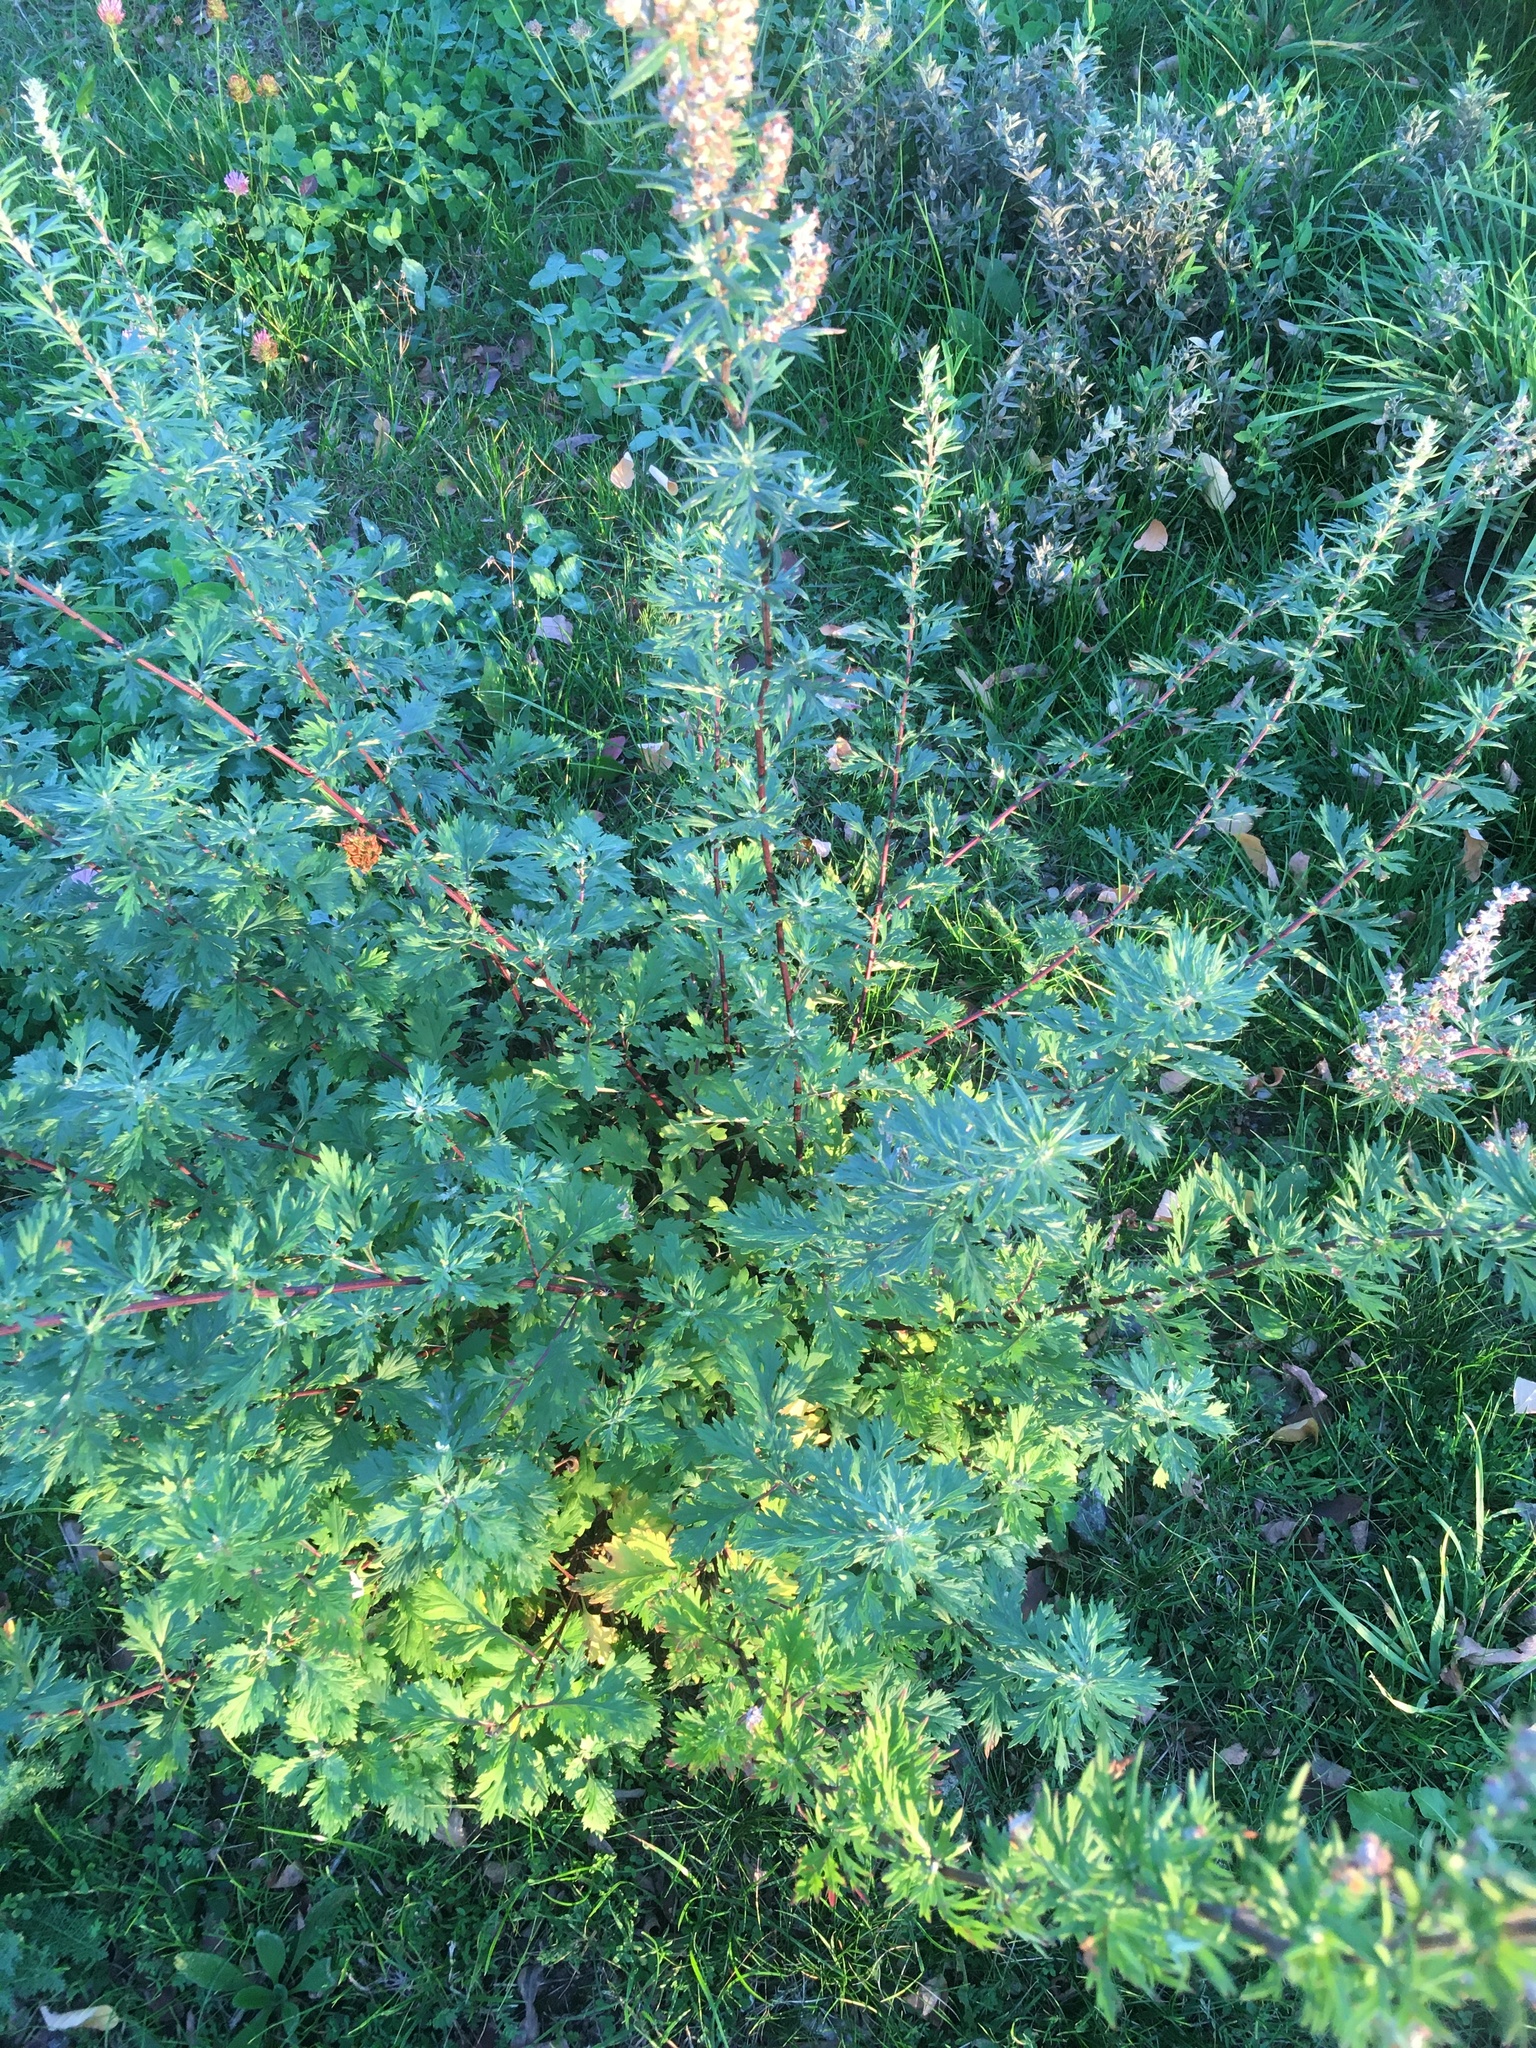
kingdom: Plantae
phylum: Tracheophyta
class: Magnoliopsida
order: Asterales
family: Asteraceae
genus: Artemisia
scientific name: Artemisia vulgaris
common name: Mugwort
